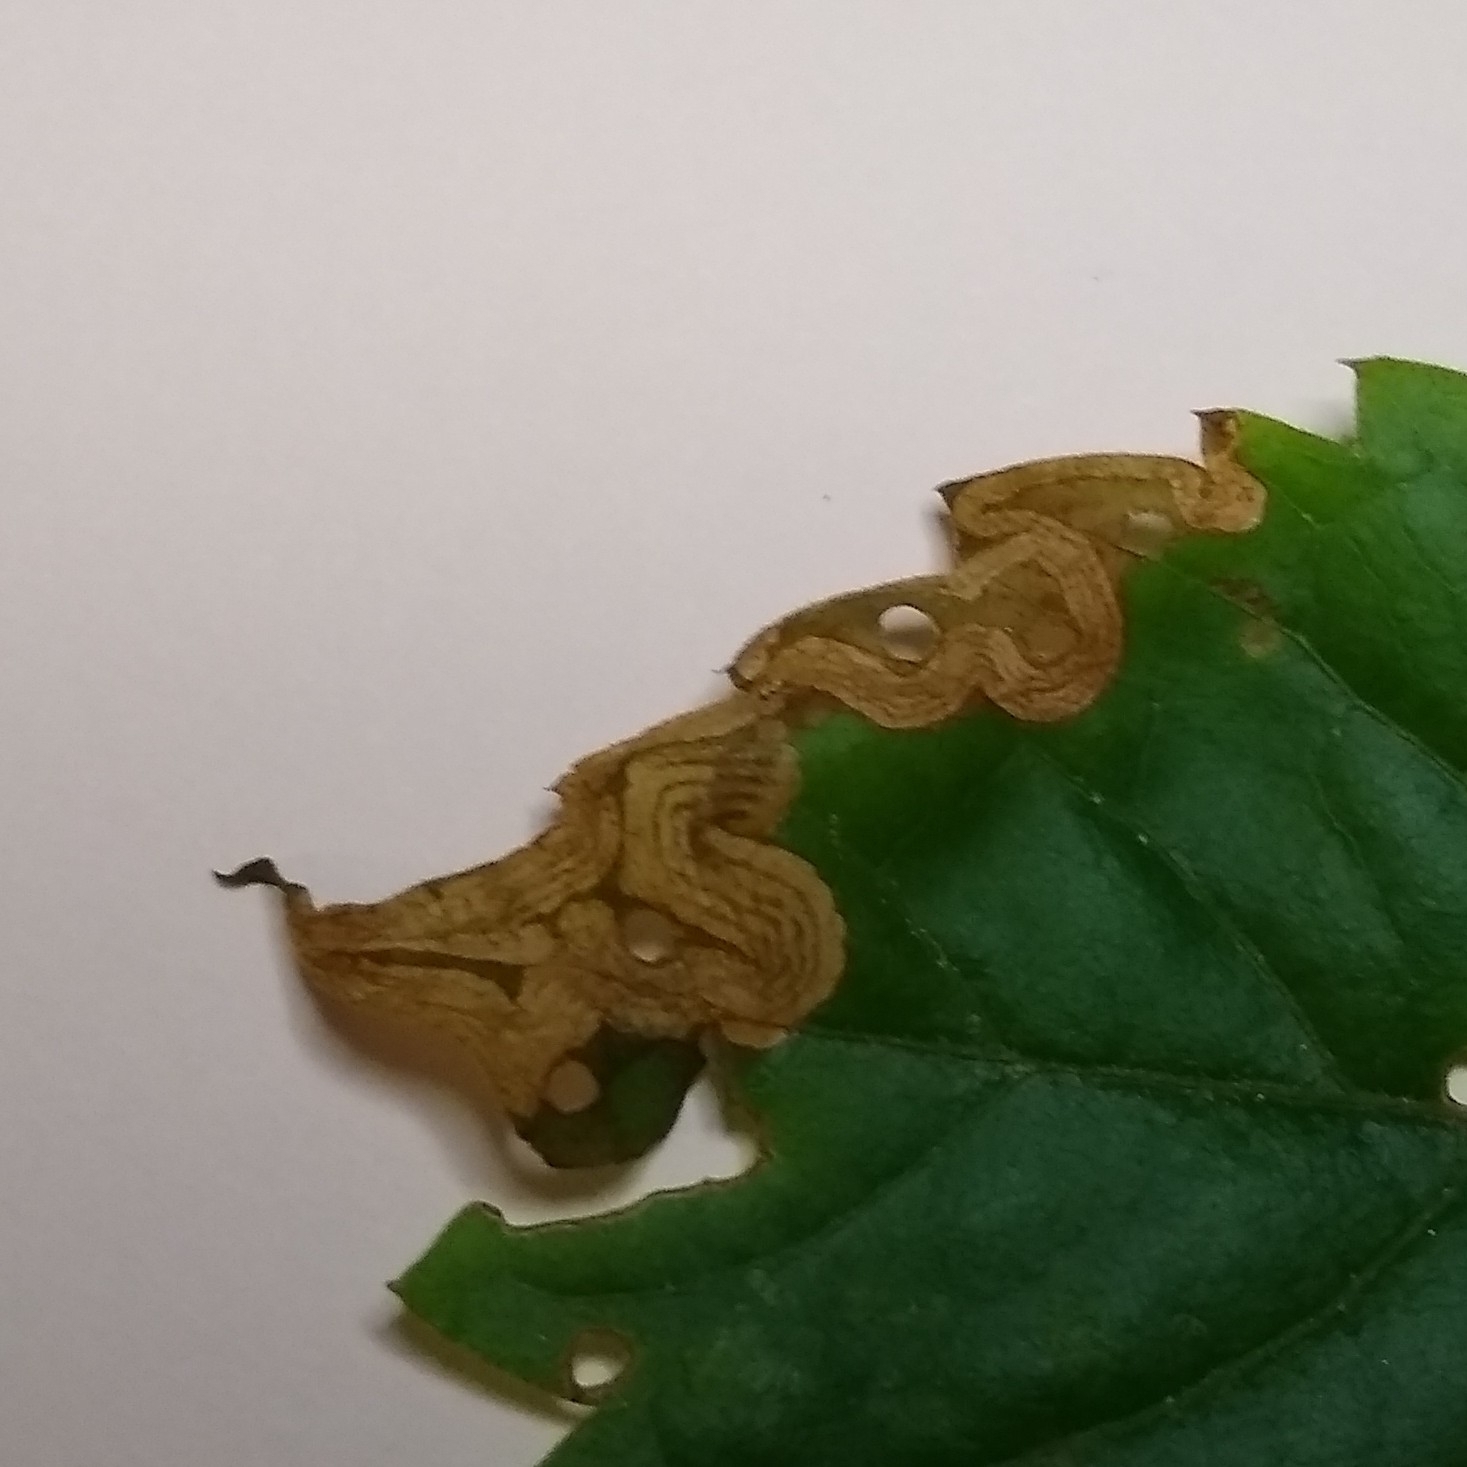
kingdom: Animalia
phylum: Arthropoda
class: Insecta
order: Coleoptera
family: Curculionidae
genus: Orchestomerus
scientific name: Orchestomerus eisemani
